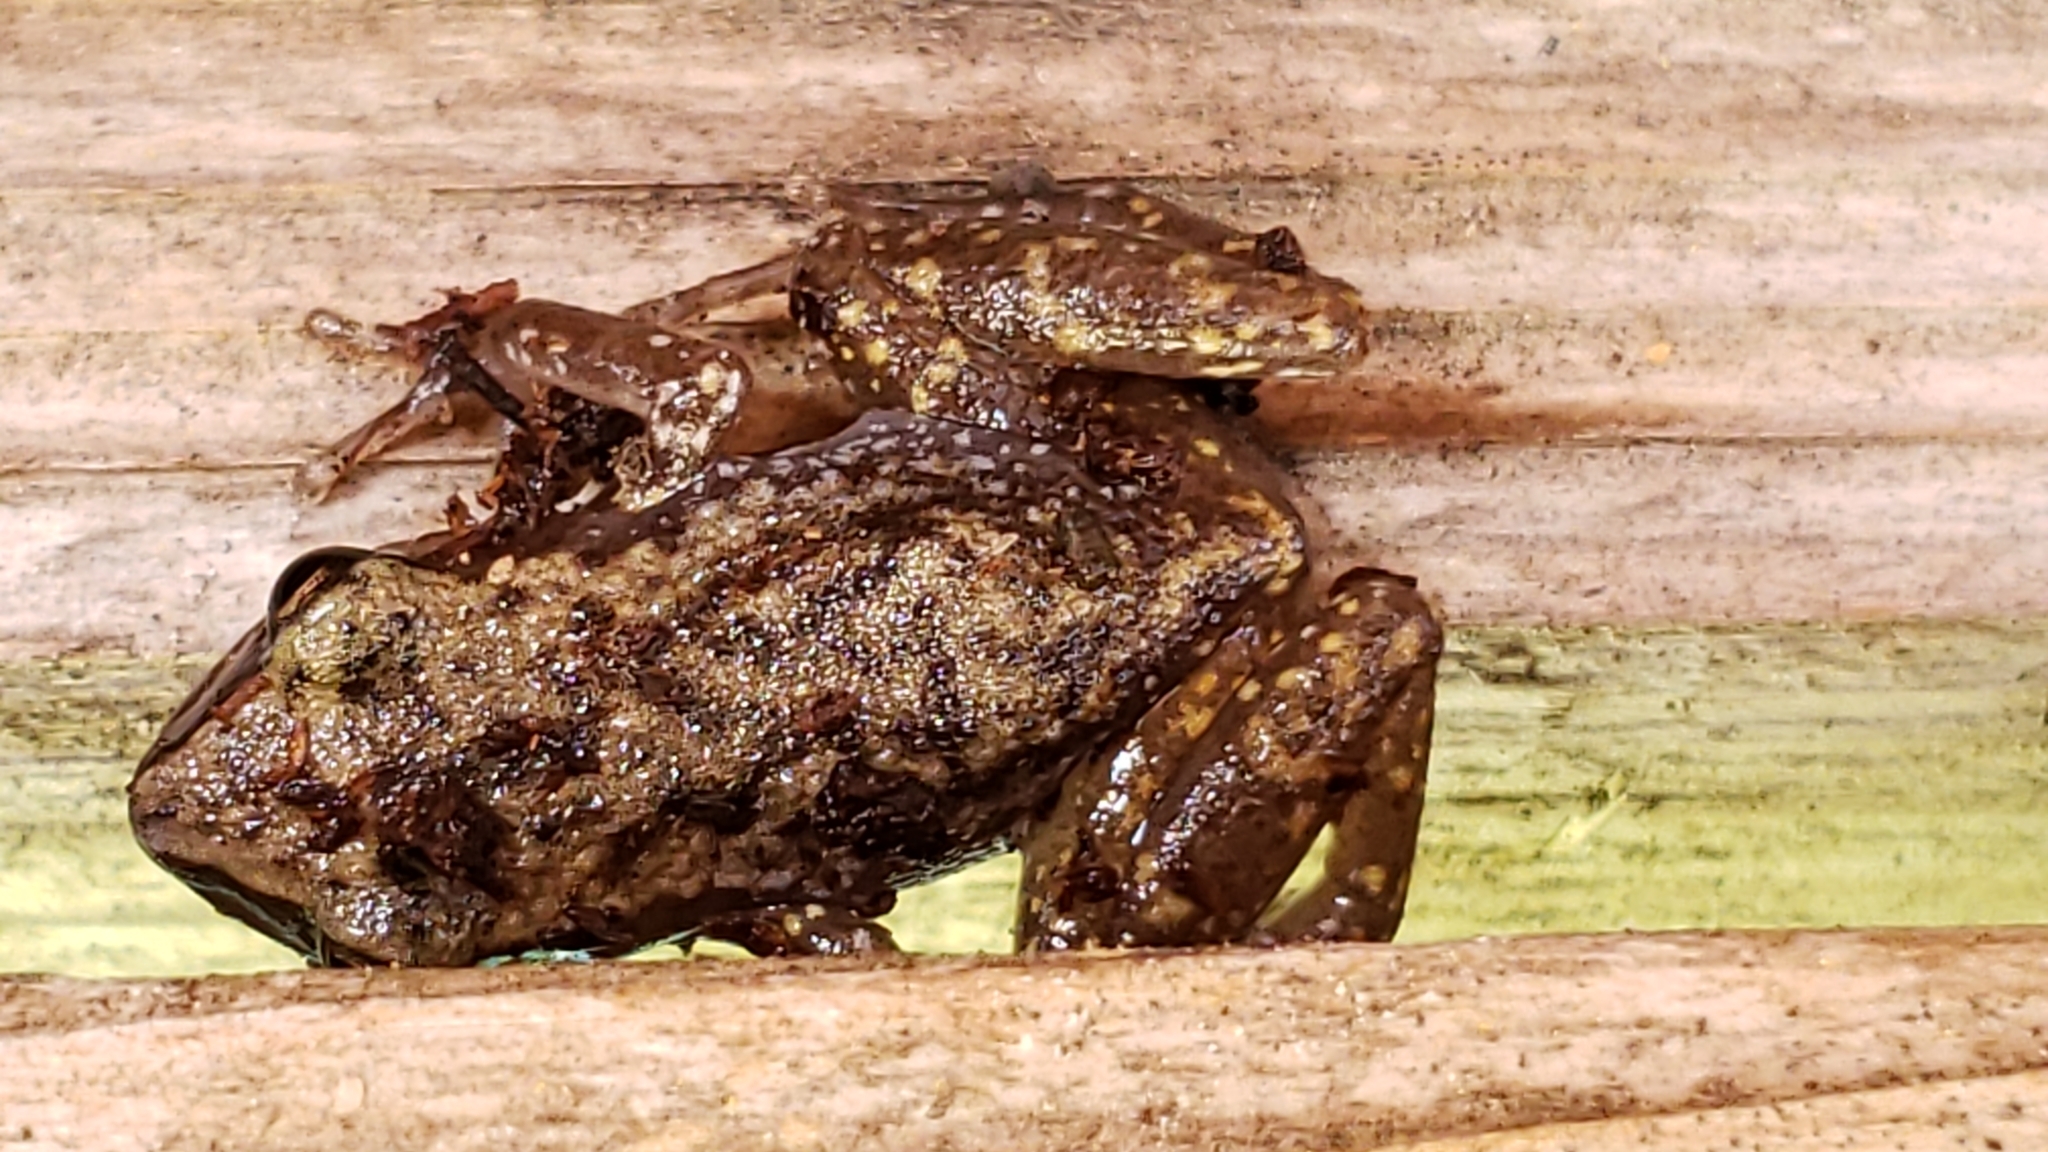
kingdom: Animalia
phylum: Chordata
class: Amphibia
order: Anura
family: Eleutherodactylidae
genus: Eleutherodactylus
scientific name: Eleutherodactylus campi
